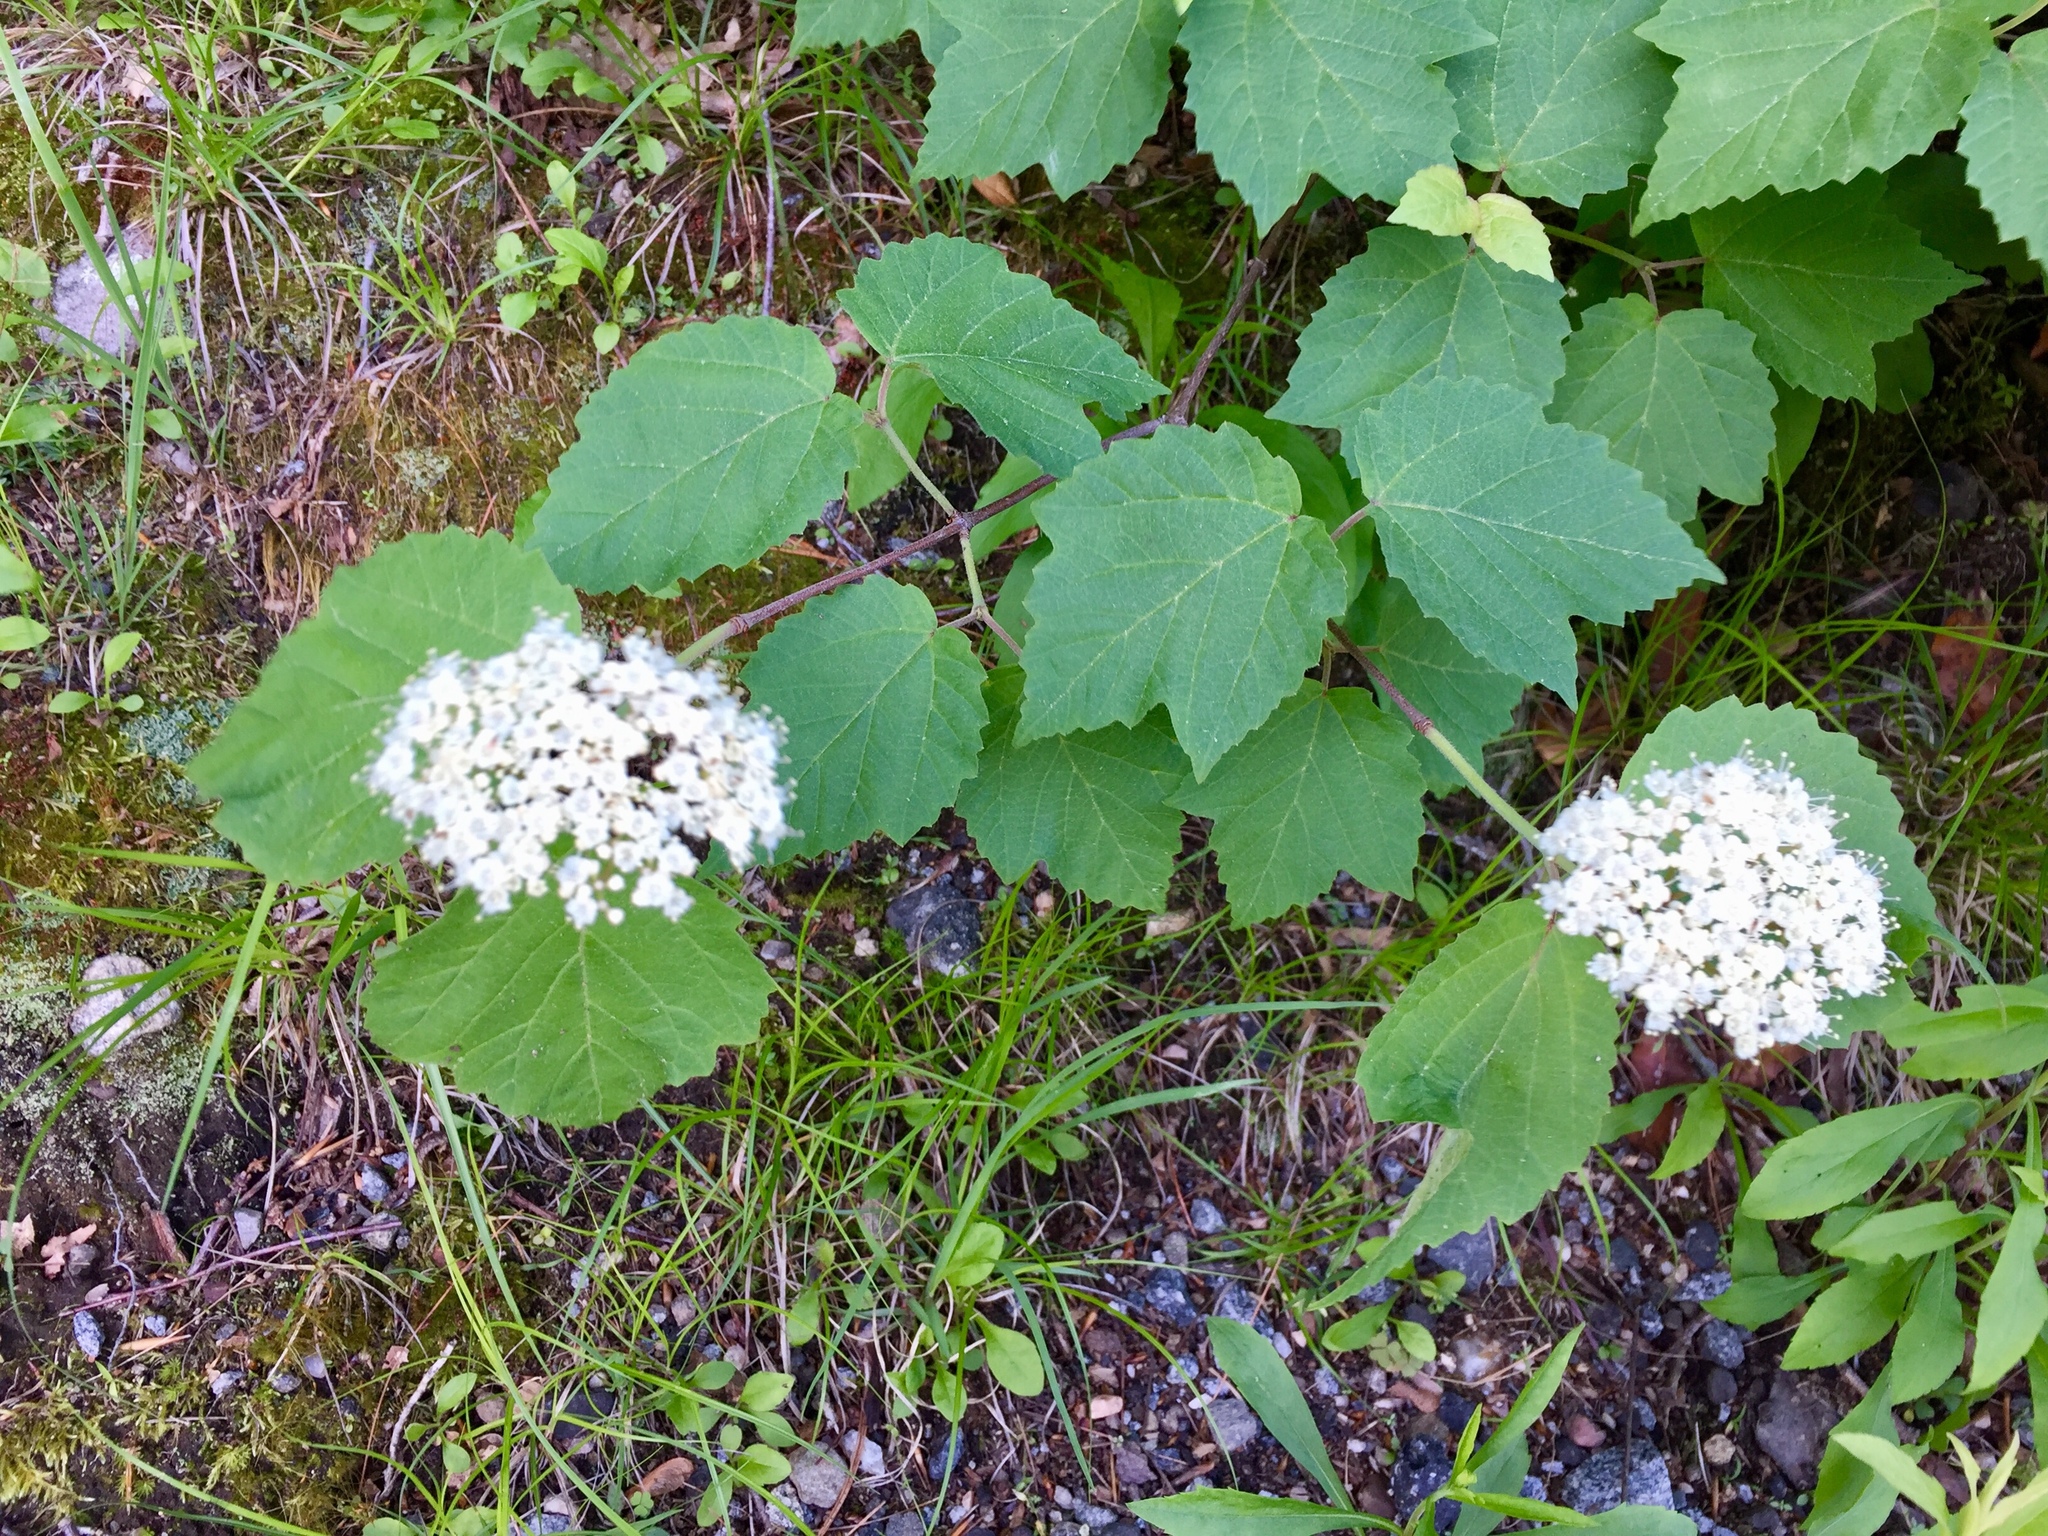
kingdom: Plantae
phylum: Tracheophyta
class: Magnoliopsida
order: Dipsacales
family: Viburnaceae
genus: Viburnum
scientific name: Viburnum acerifolium
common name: Dockmackie
